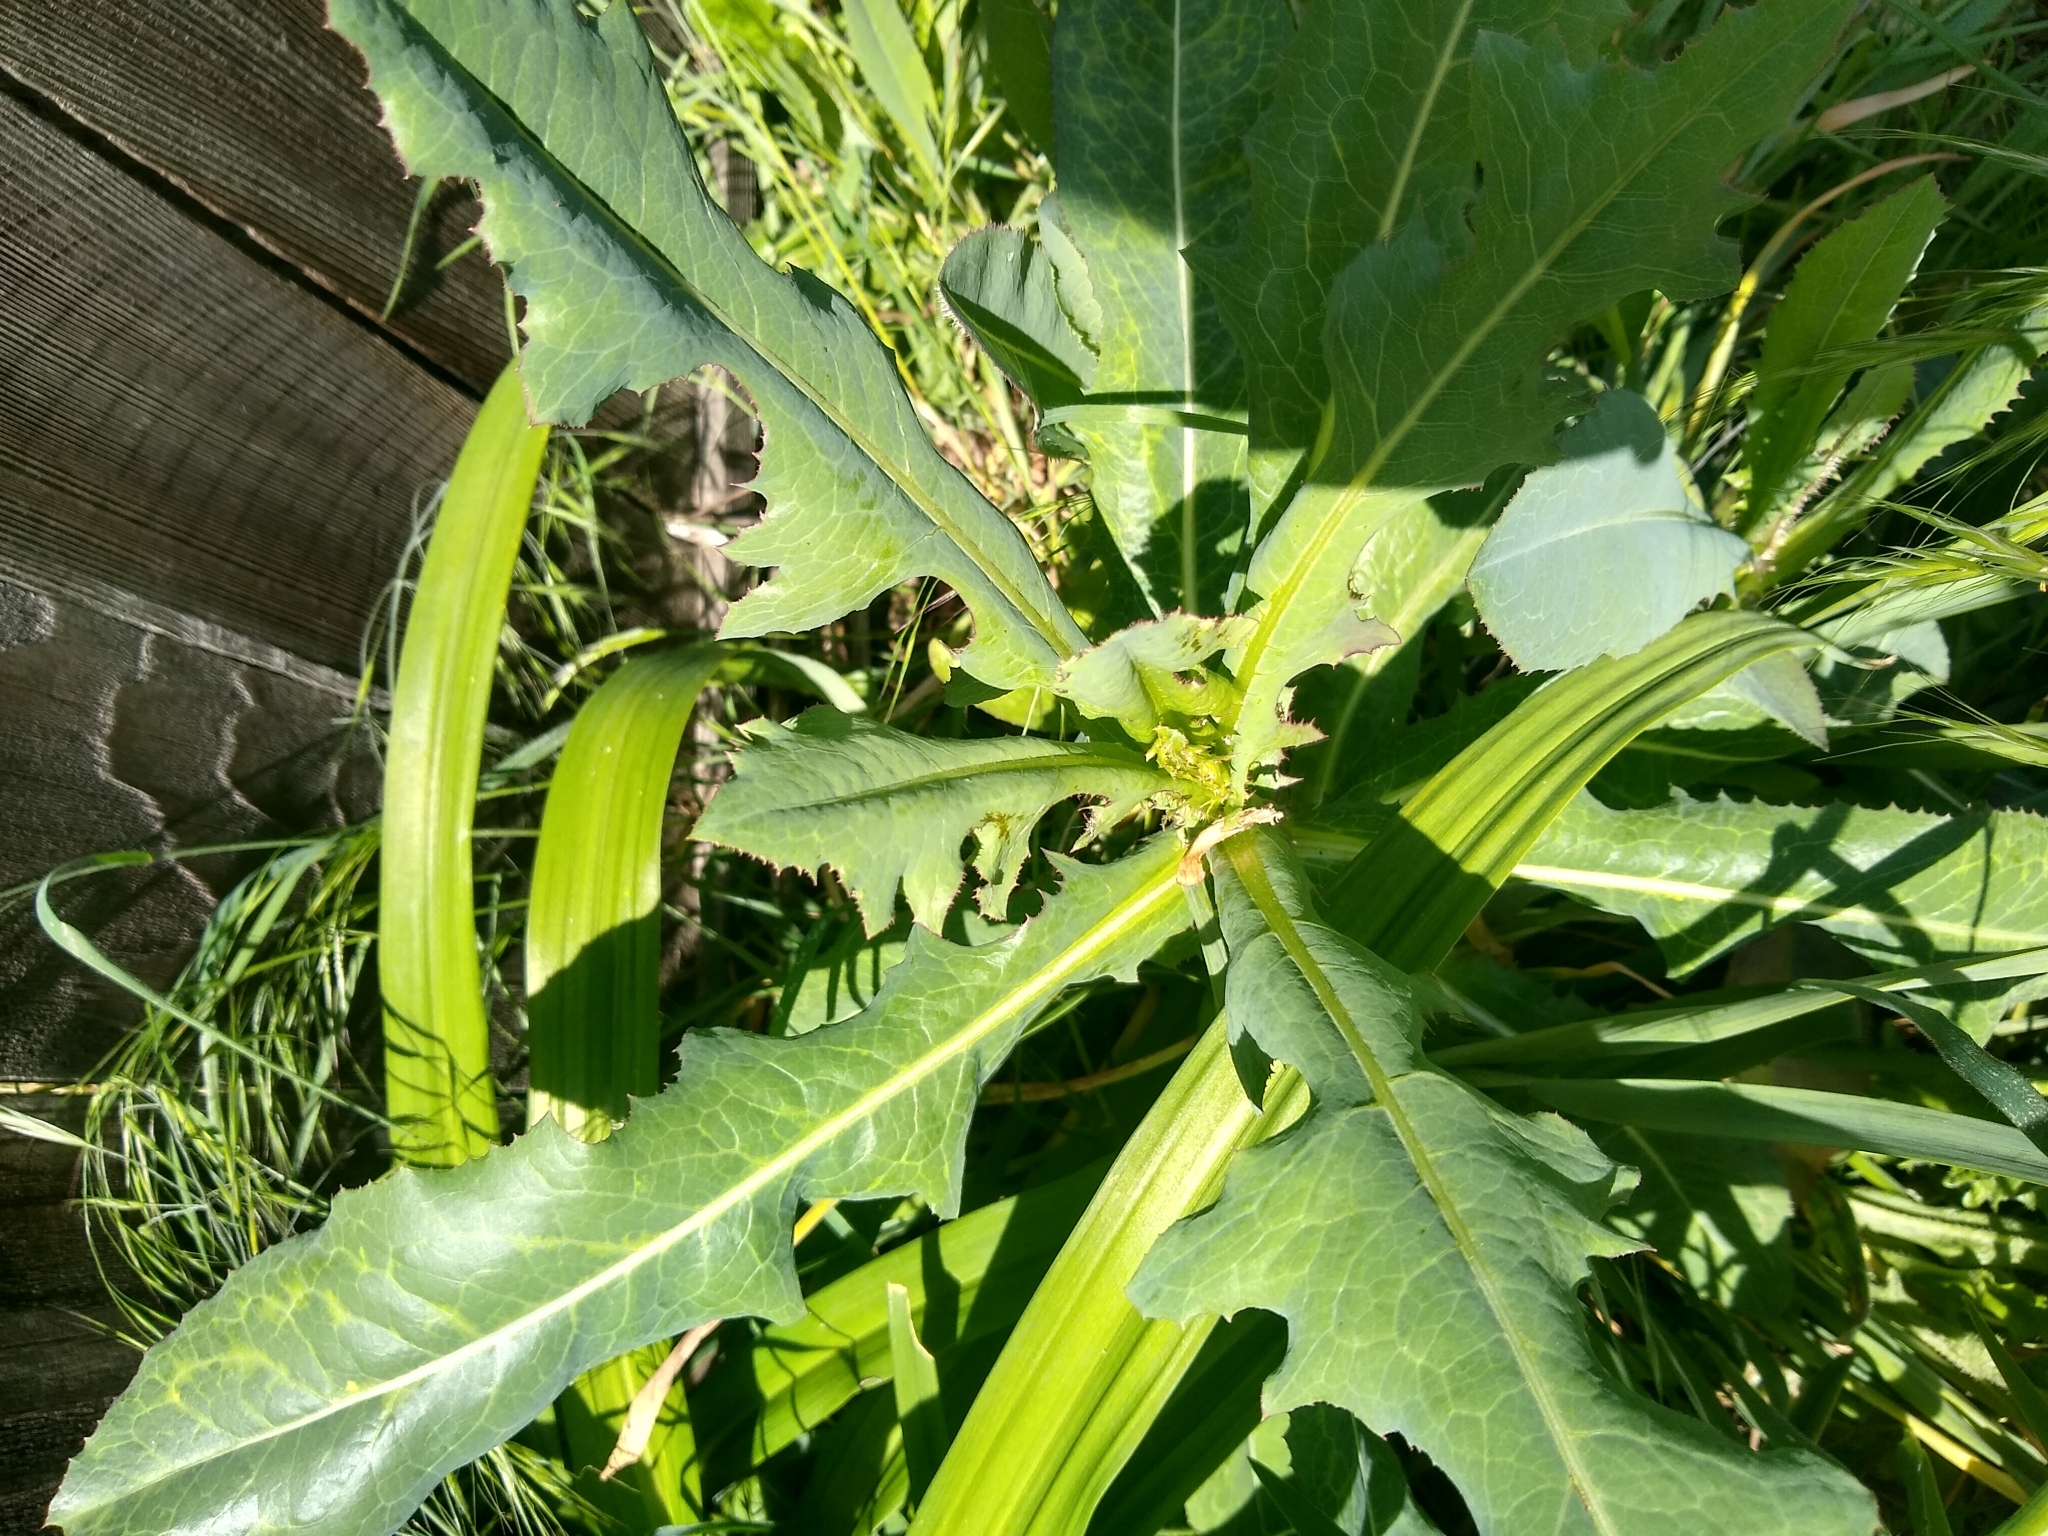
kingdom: Plantae
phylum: Tracheophyta
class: Magnoliopsida
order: Asterales
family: Asteraceae
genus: Lactuca
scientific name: Lactuca serriola
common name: Prickly lettuce
